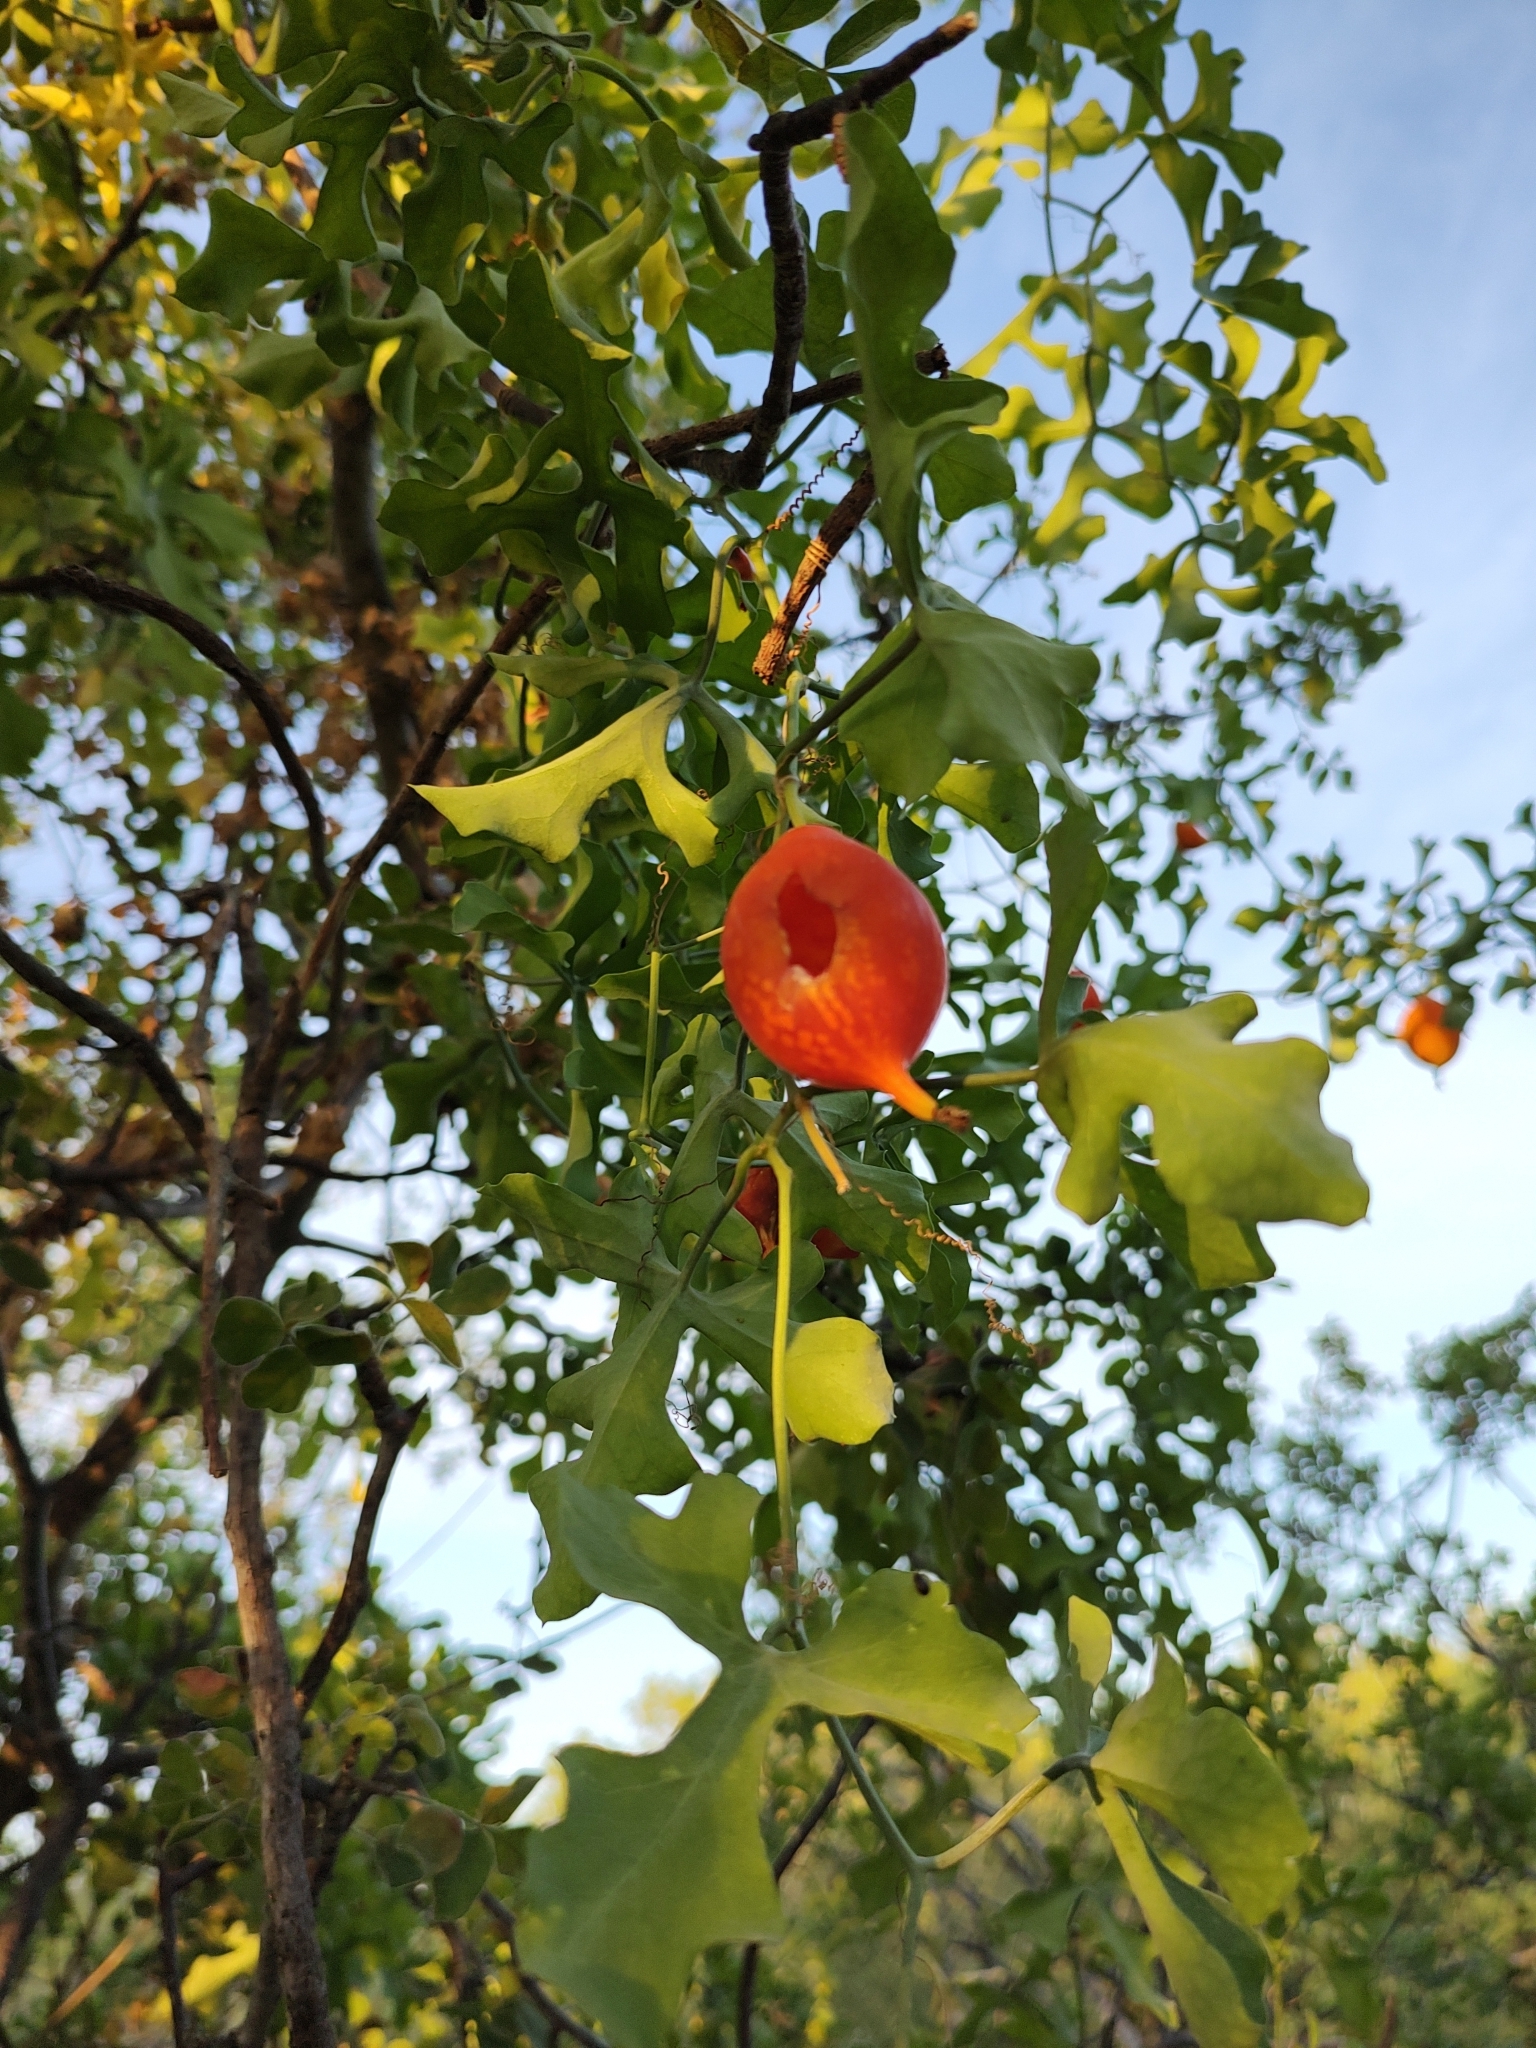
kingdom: Plantae
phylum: Tracheophyta
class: Magnoliopsida
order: Cucurbitales
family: Cucurbitaceae
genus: Ibervillea
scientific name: Ibervillea sonorae
